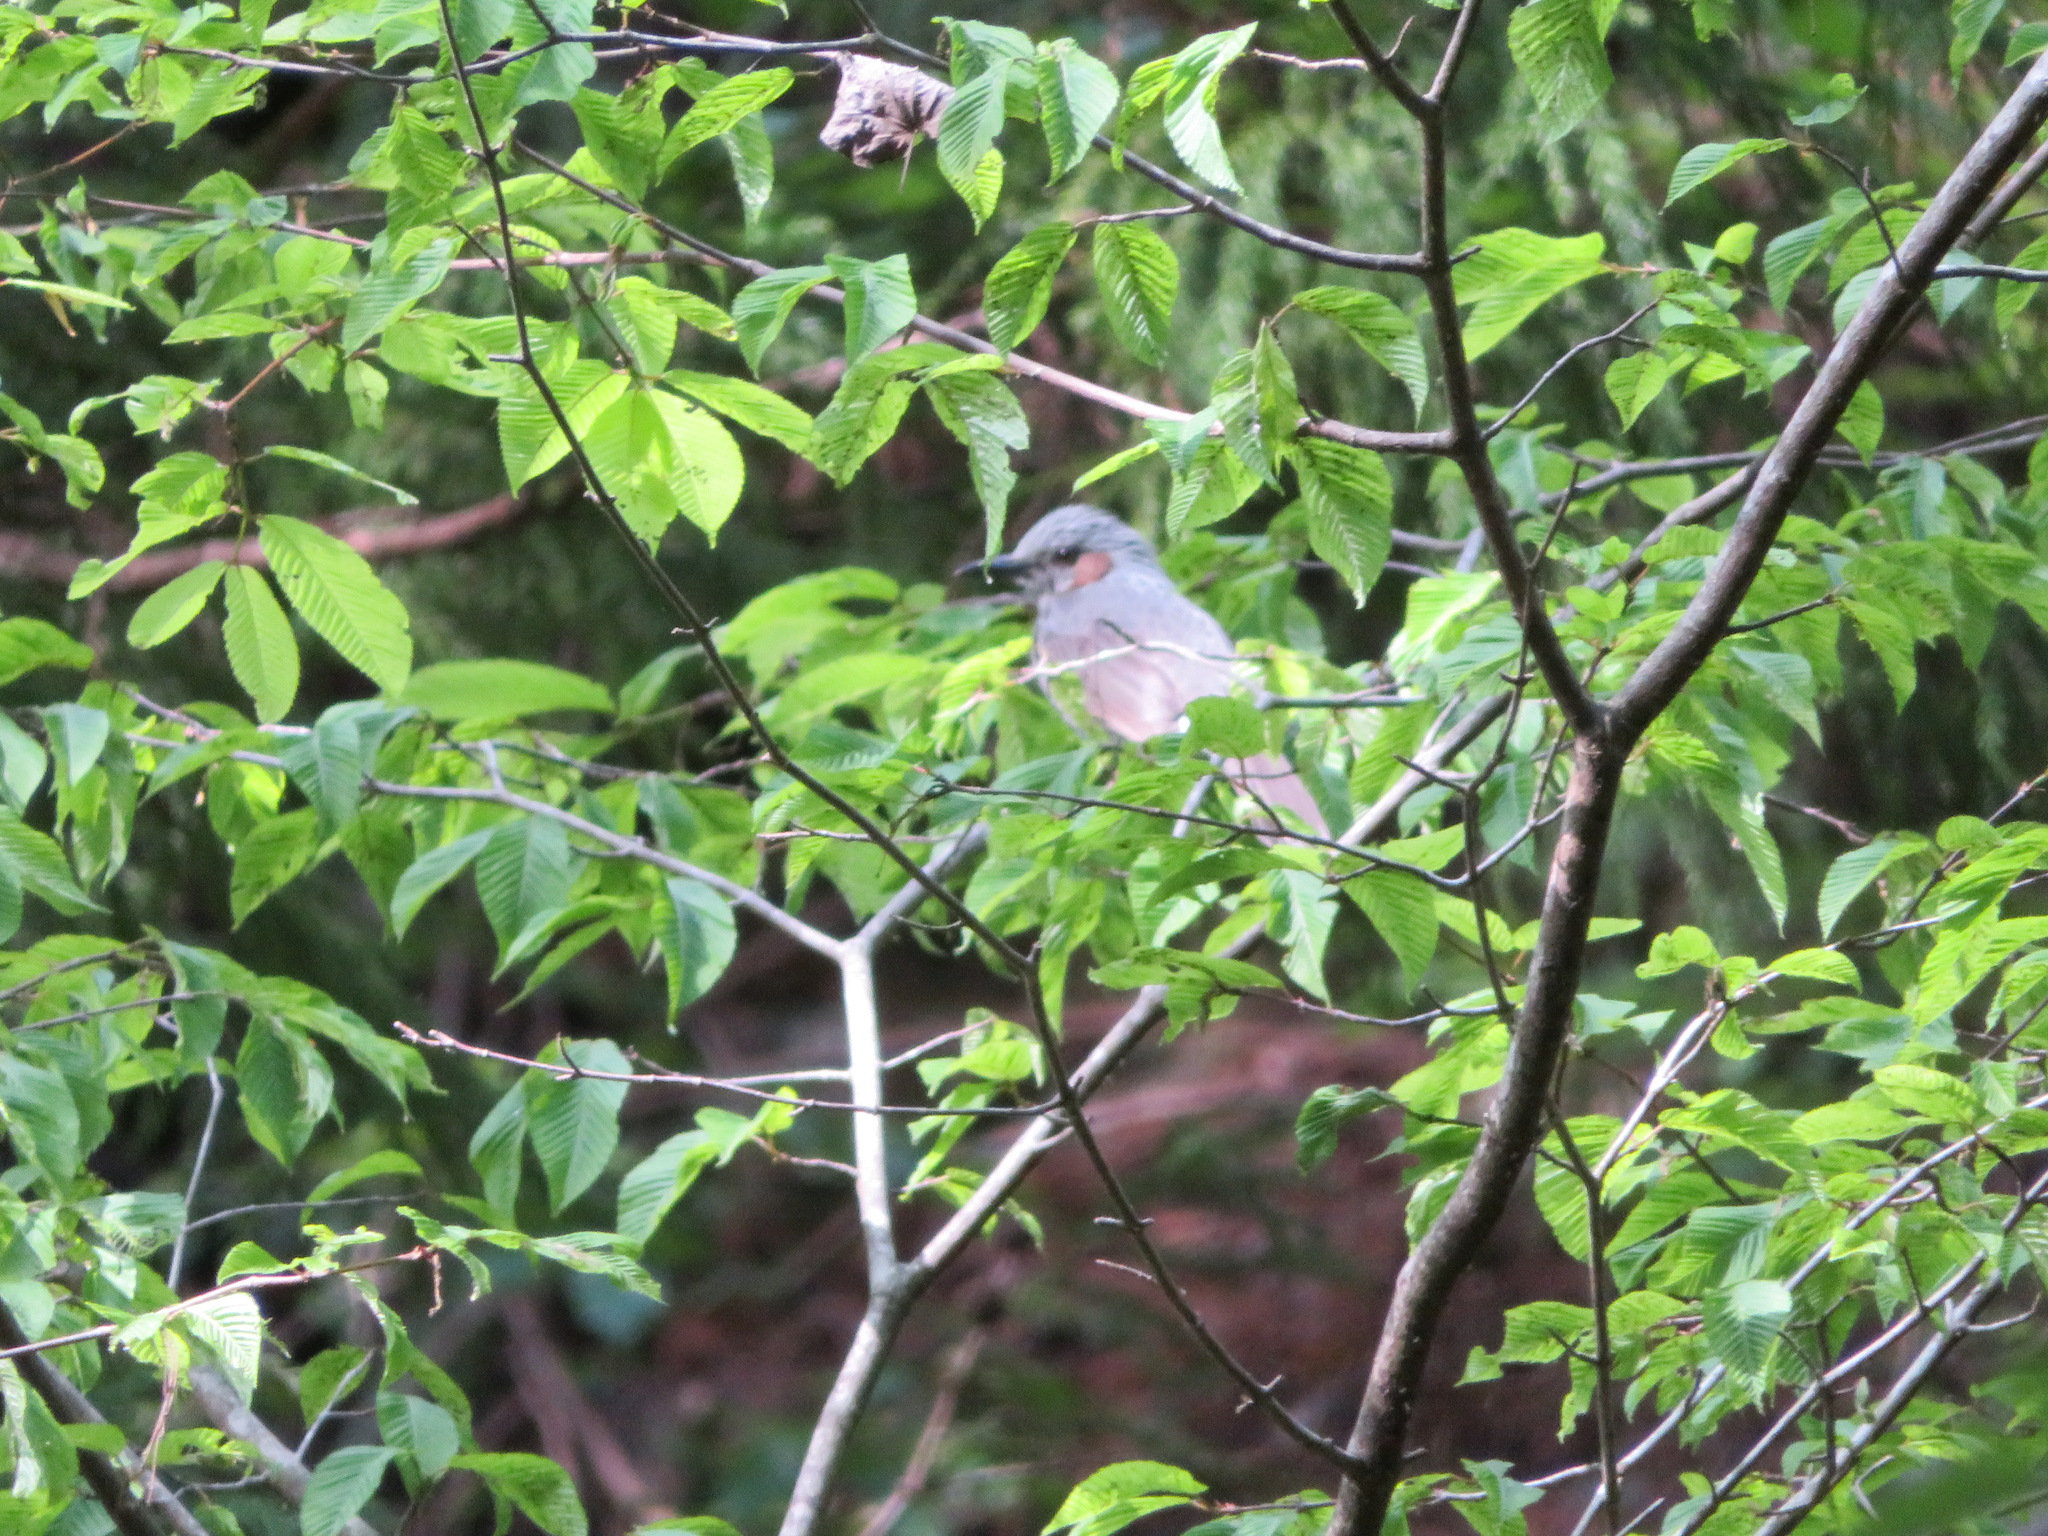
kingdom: Animalia
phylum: Chordata
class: Aves
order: Passeriformes
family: Pycnonotidae
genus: Hypsipetes
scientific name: Hypsipetes amaurotis
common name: Brown-eared bulbul
